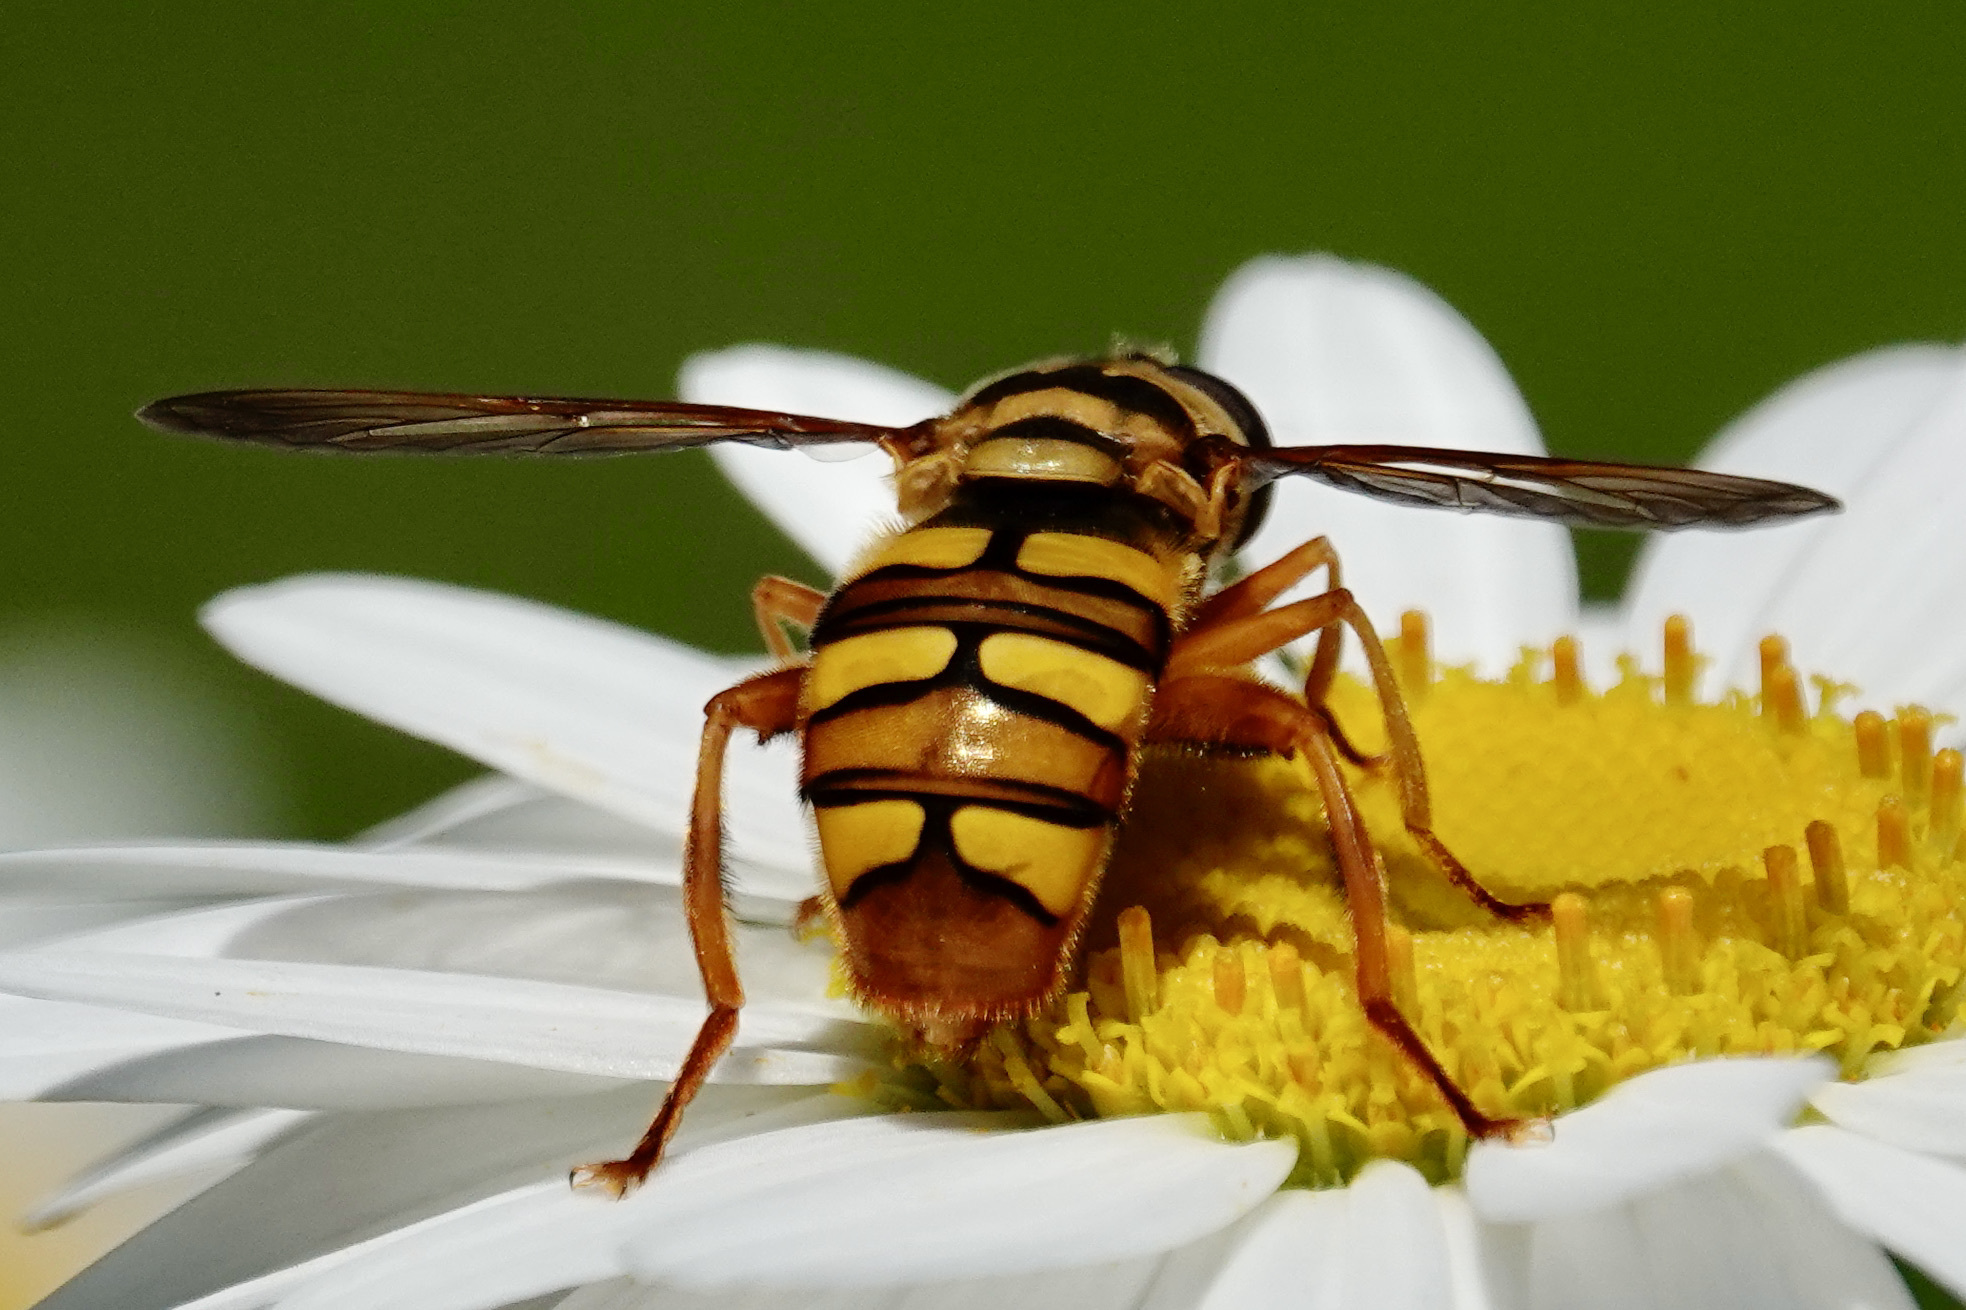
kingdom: Animalia
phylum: Arthropoda
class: Insecta
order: Diptera
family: Syrphidae
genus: Milesia
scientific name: Milesia virginiensis
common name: Virginia giant
